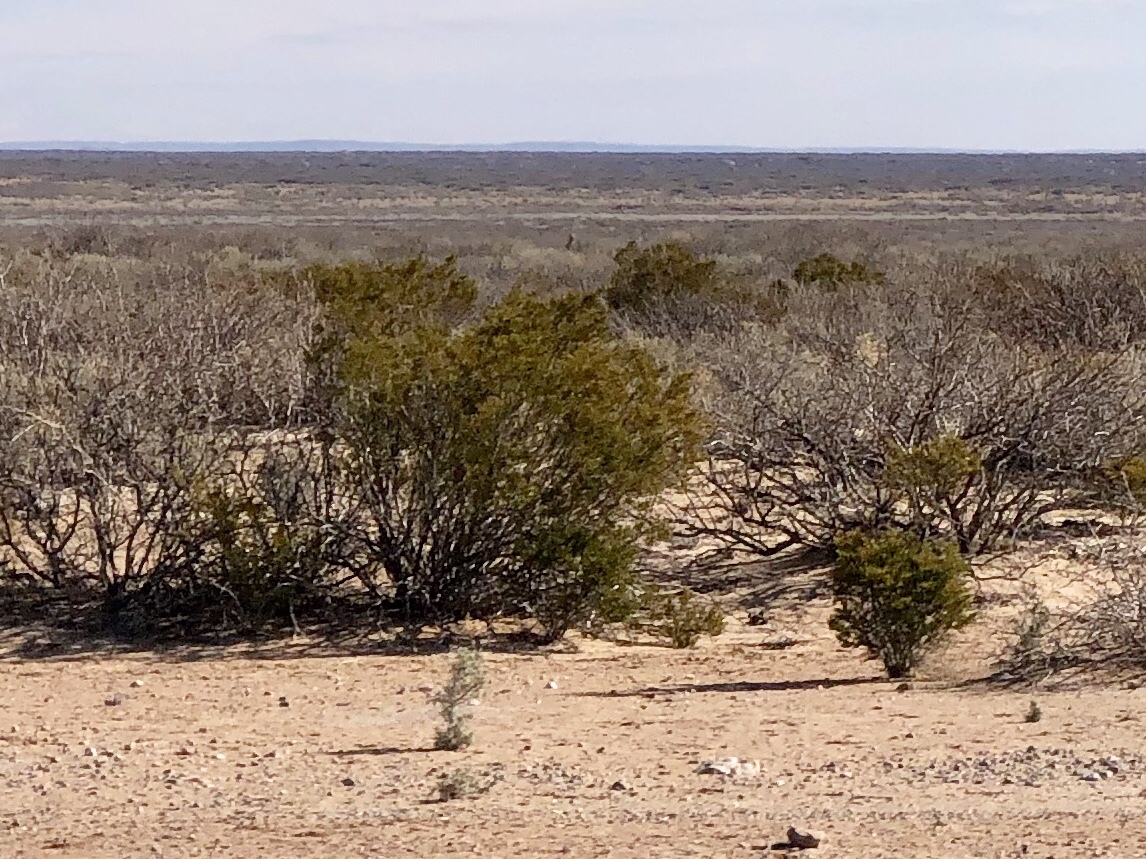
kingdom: Plantae
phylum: Tracheophyta
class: Magnoliopsida
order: Zygophyllales
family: Zygophyllaceae
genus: Larrea
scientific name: Larrea tridentata
